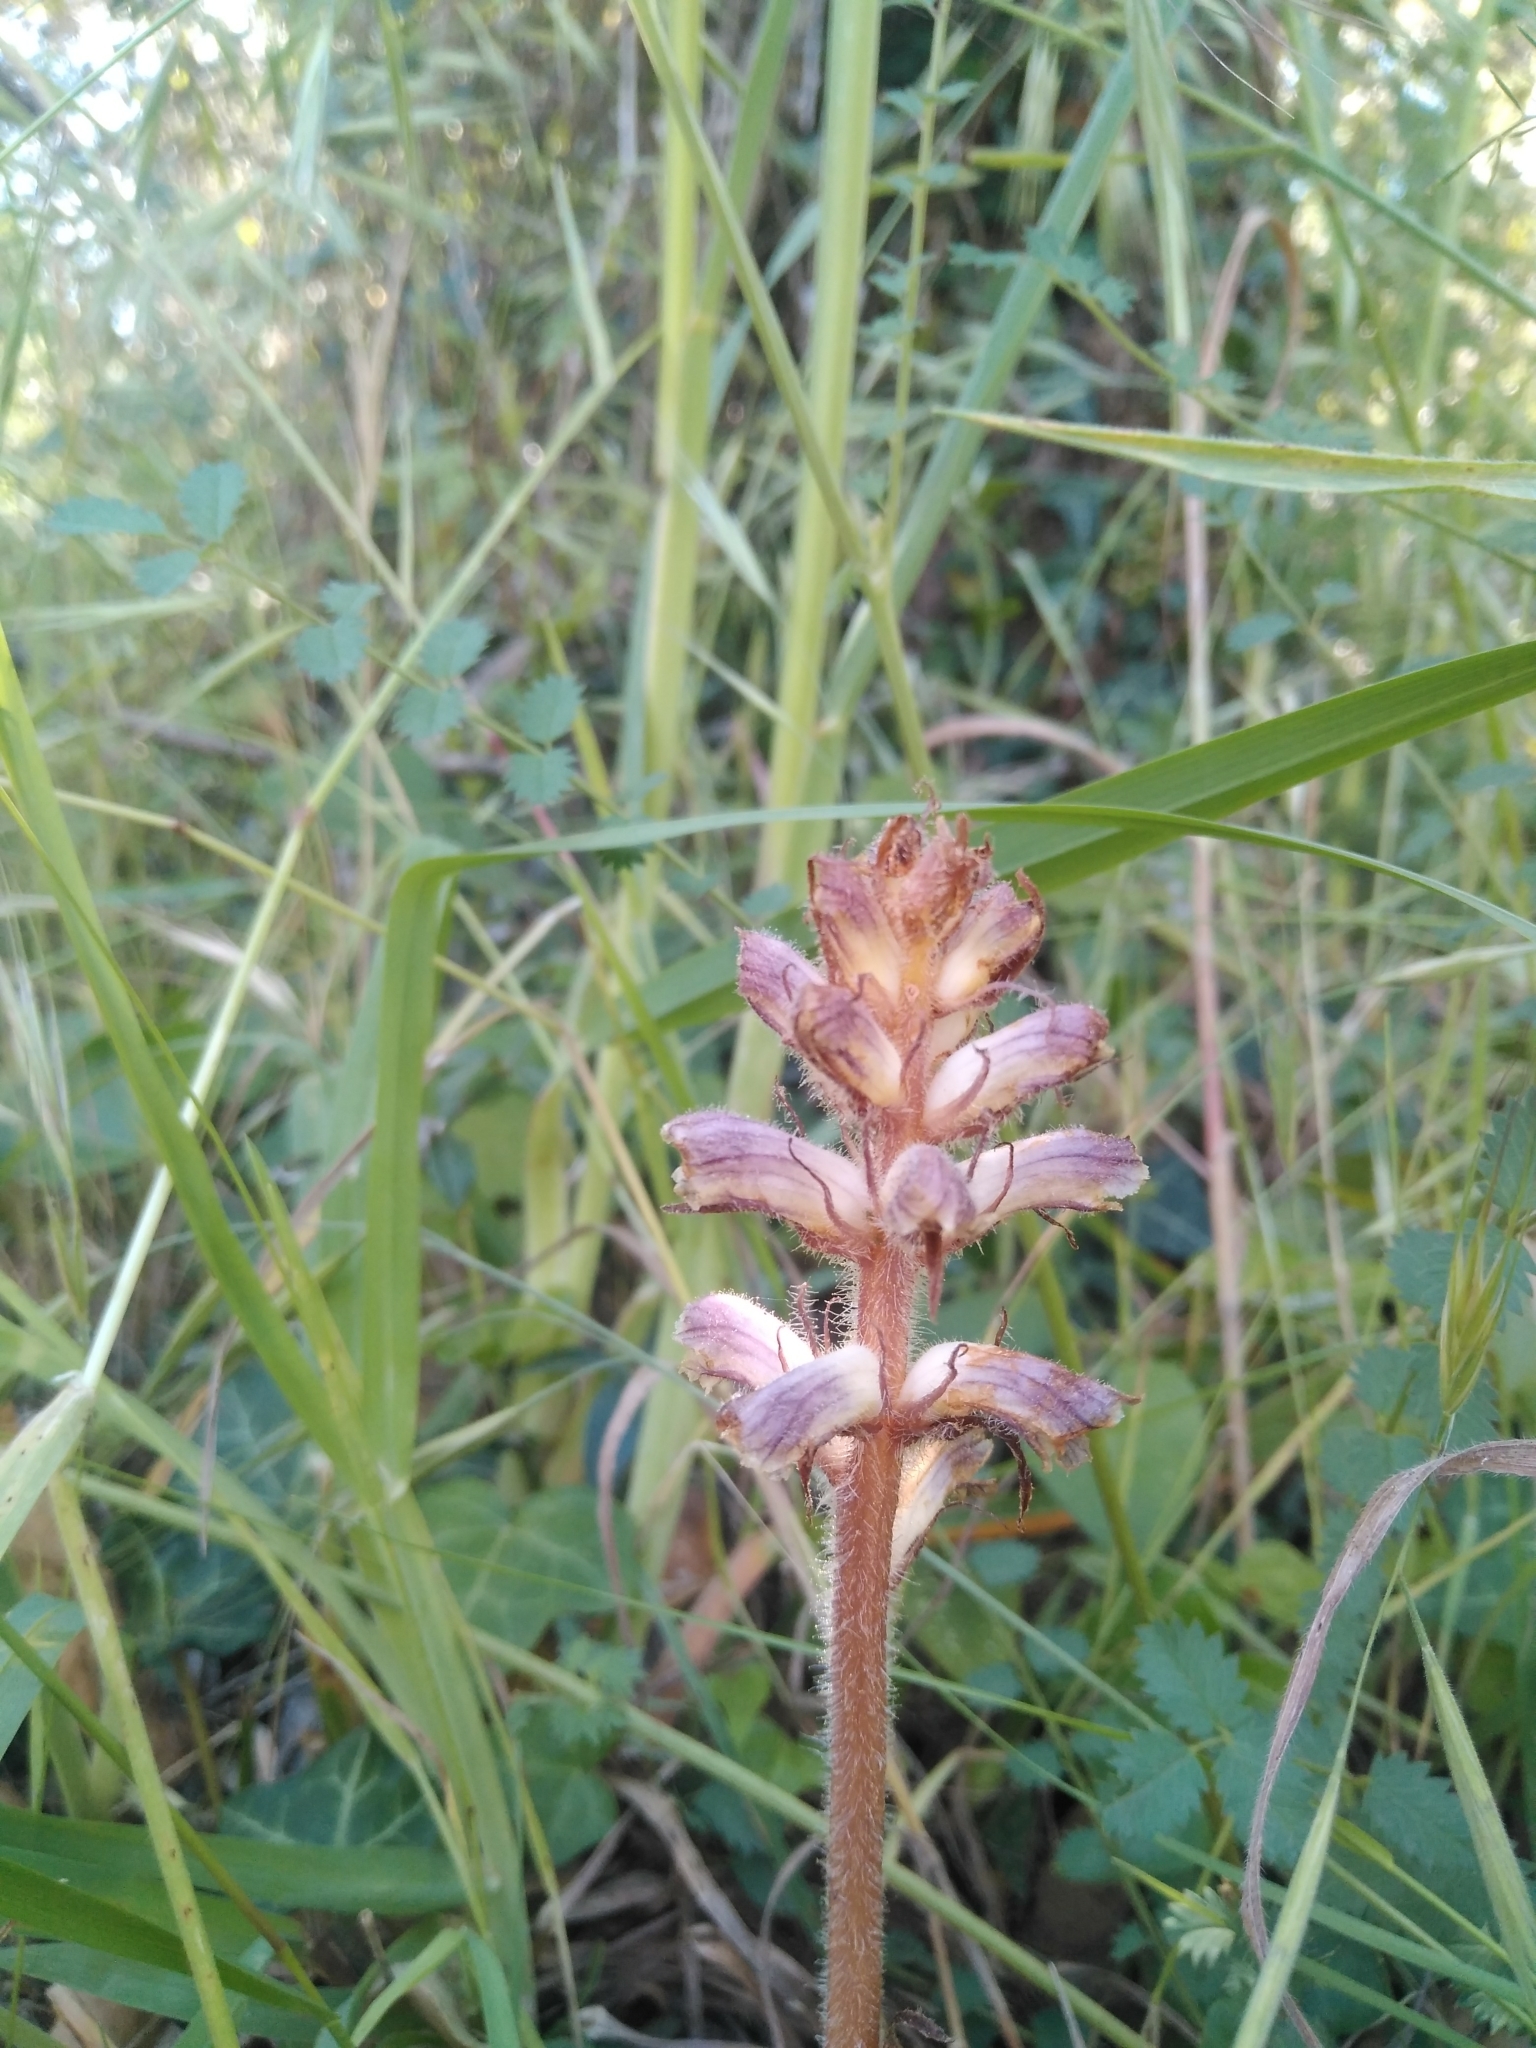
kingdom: Plantae
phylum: Tracheophyta
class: Magnoliopsida
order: Lamiales
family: Orobanchaceae
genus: Orobanche
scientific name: Orobanche minor
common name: Common broomrape
